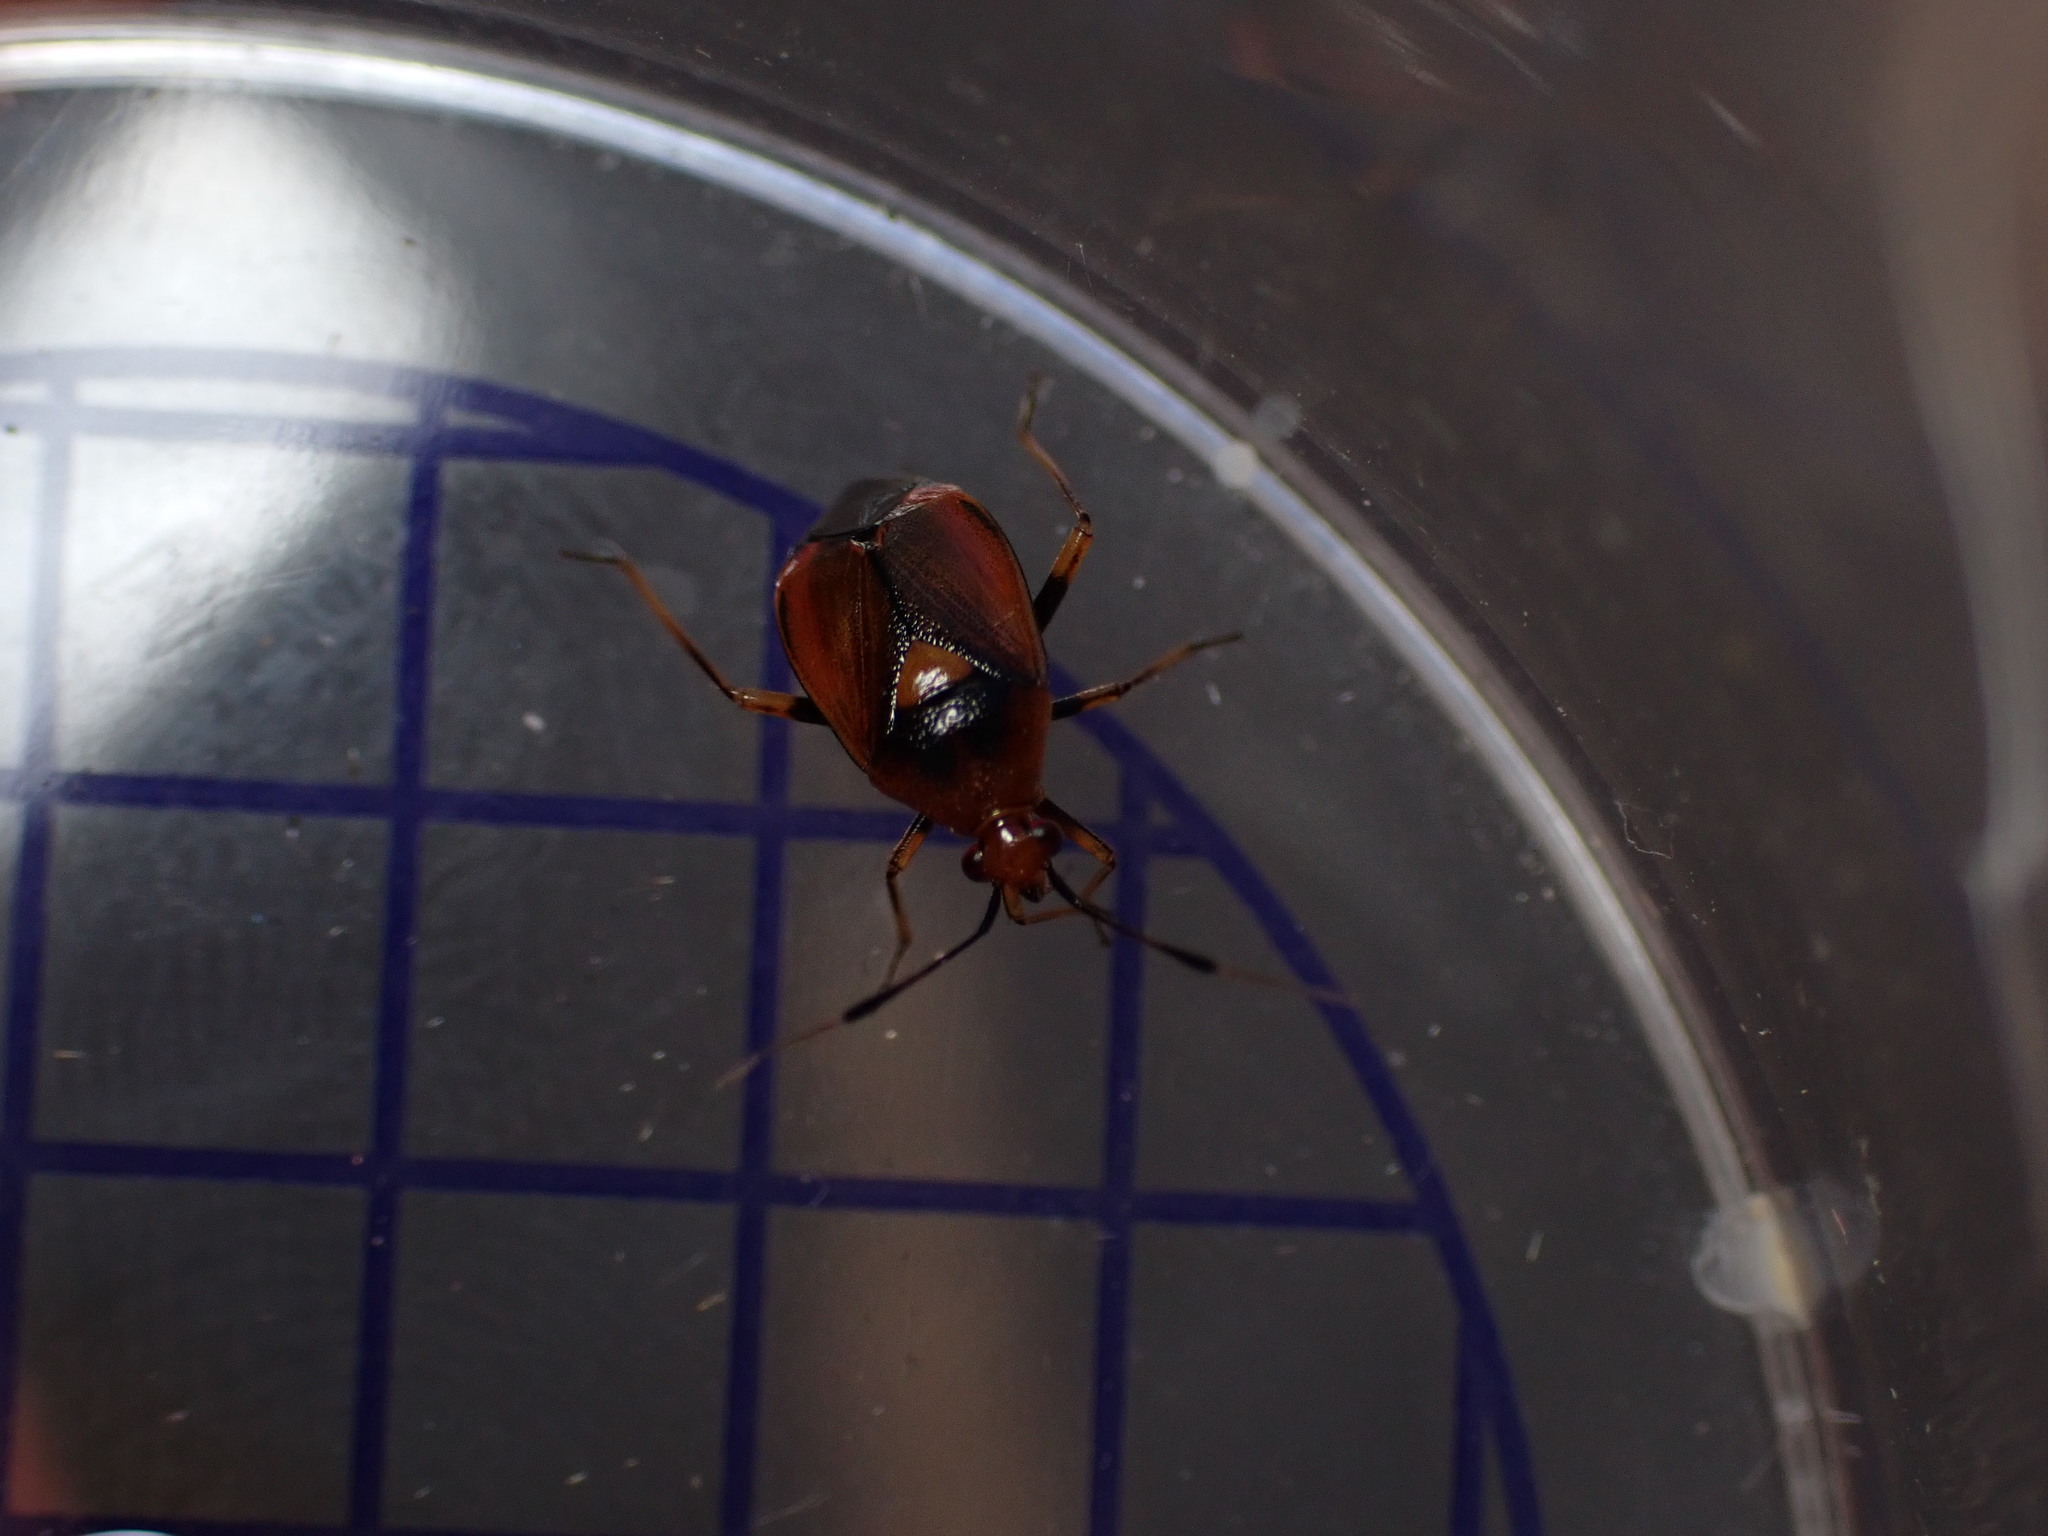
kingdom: Animalia
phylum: Arthropoda
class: Insecta
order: Hemiptera
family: Miridae
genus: Deraeocoris
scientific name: Deraeocoris ruber
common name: Plant bug
